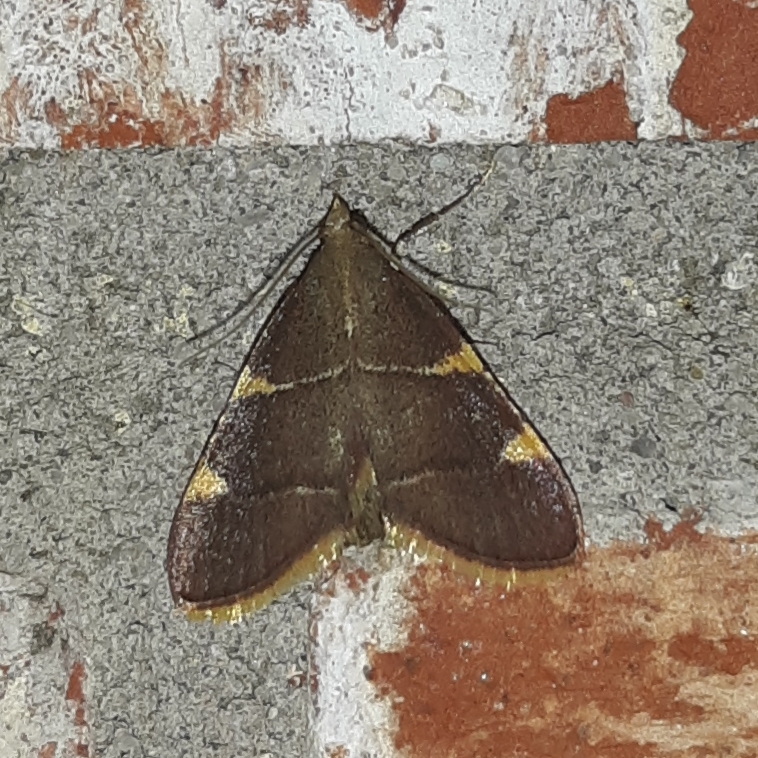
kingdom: Animalia
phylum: Arthropoda
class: Insecta
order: Lepidoptera
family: Pyralidae
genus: Hypsopygia
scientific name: Hypsopygia olinalis
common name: Yellow-fringed dolichomia moth
